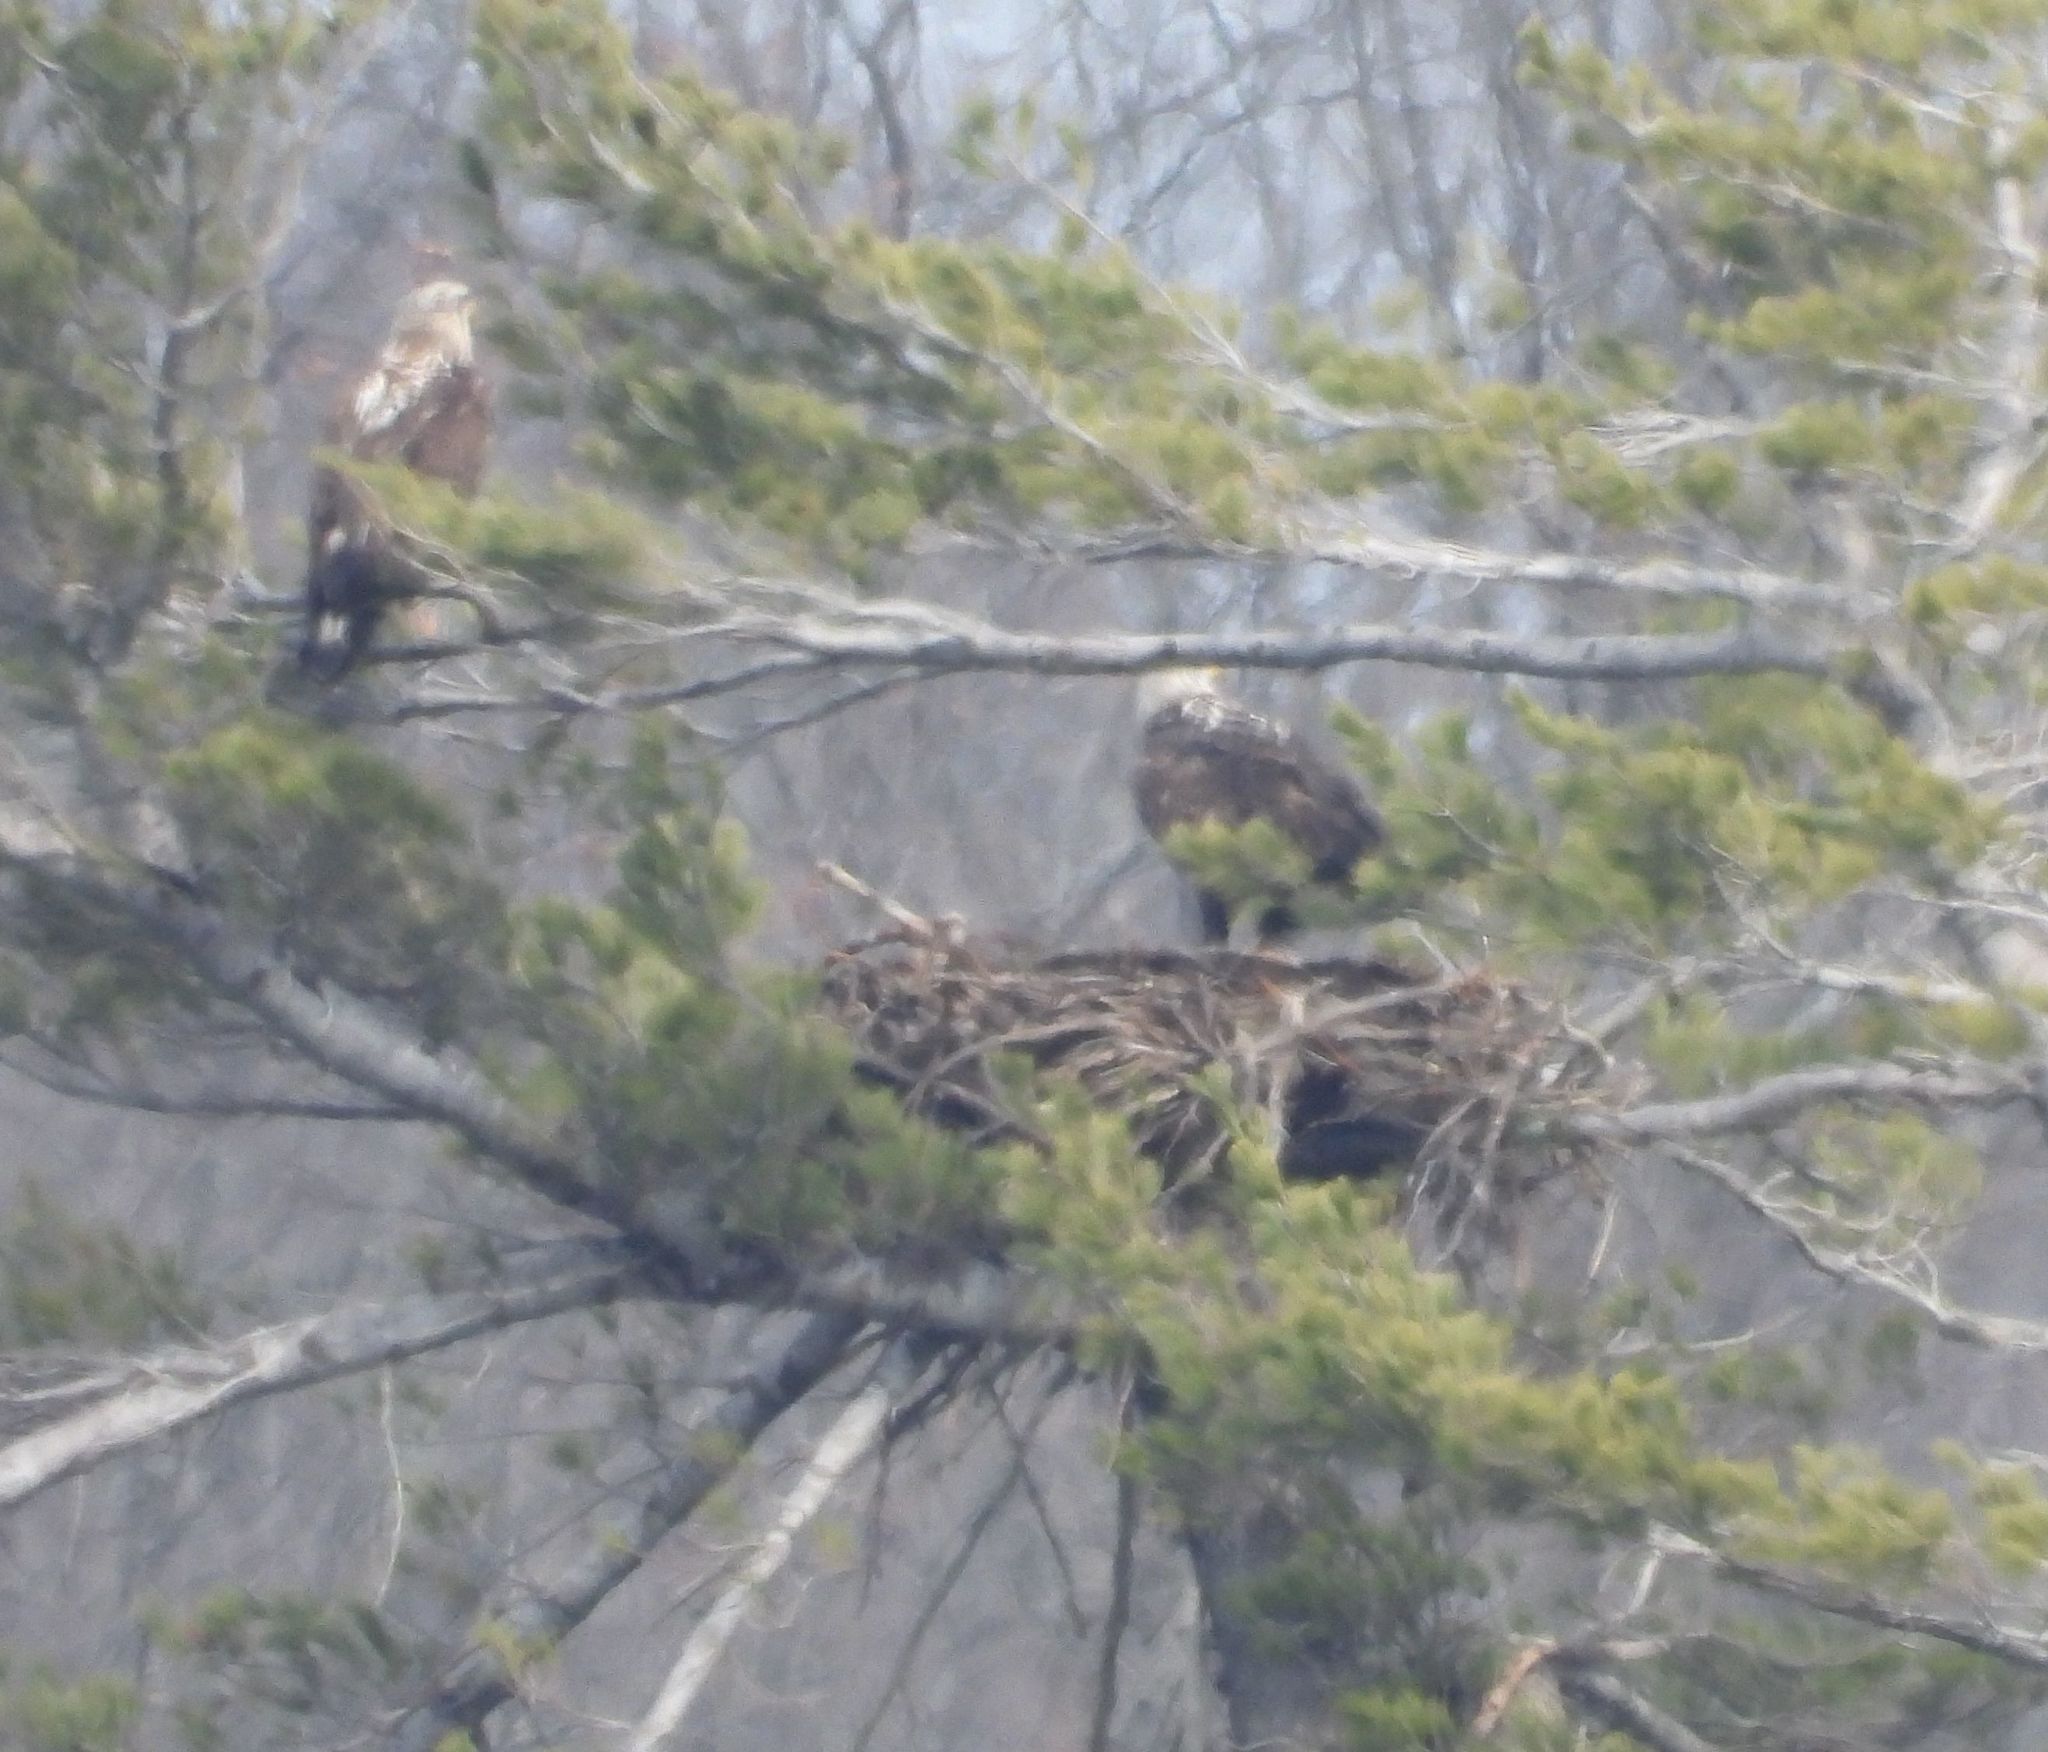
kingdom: Animalia
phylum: Chordata
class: Aves
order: Accipitriformes
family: Accipitridae
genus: Haliaeetus
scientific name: Haliaeetus leucocephalus
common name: Bald eagle
